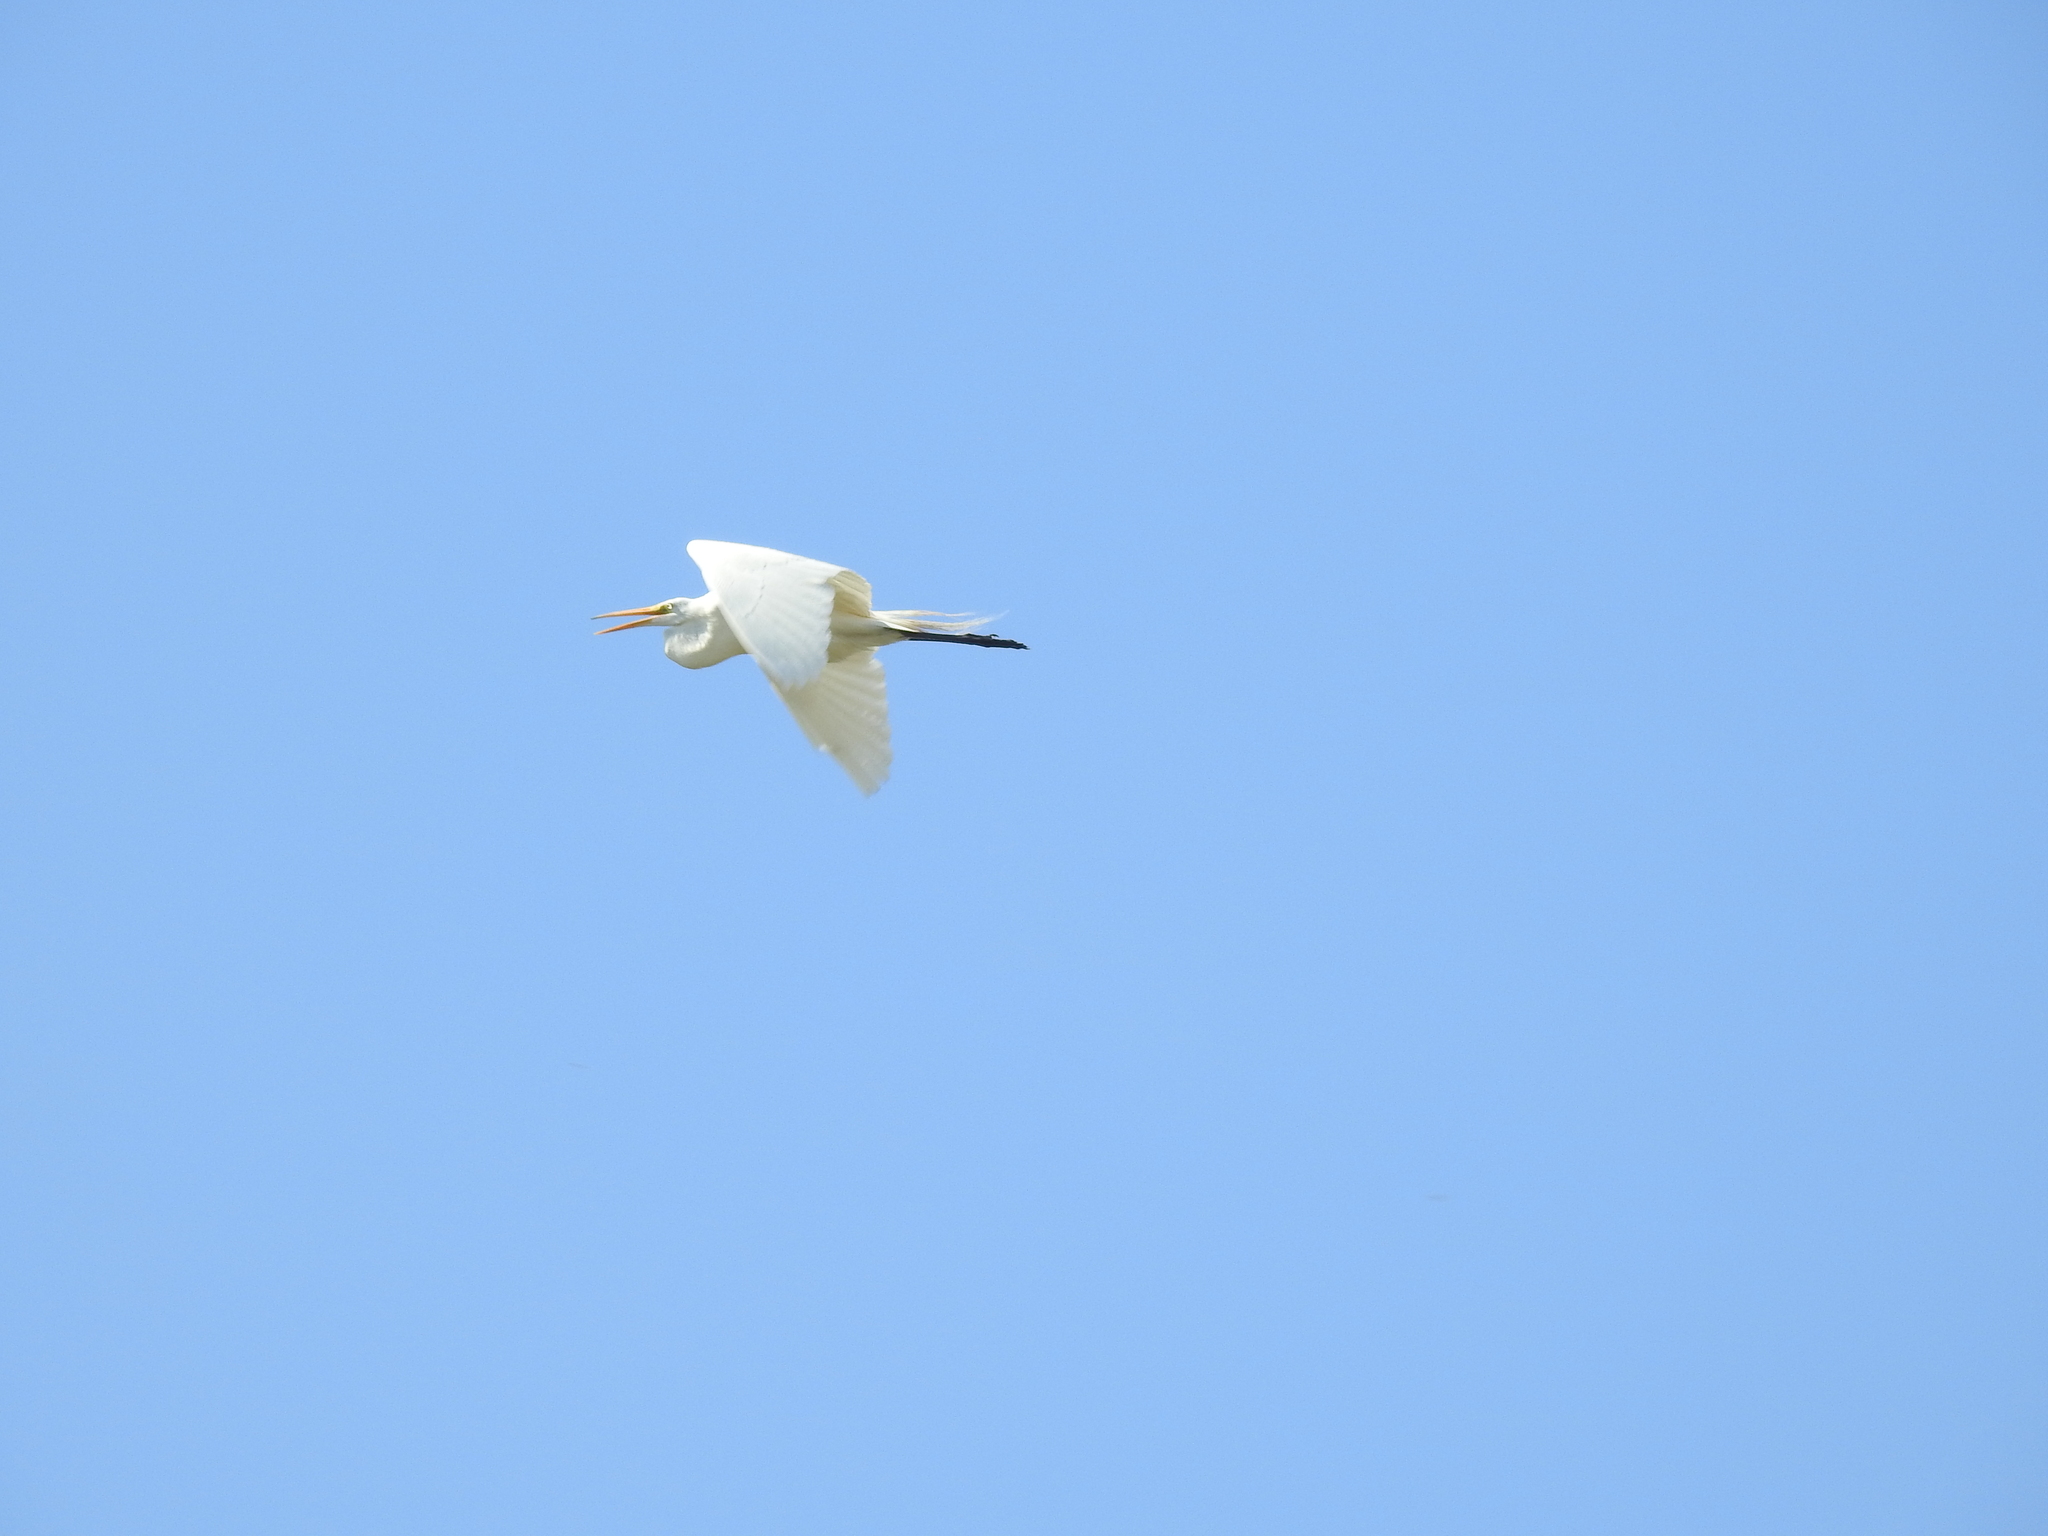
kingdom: Animalia
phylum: Chordata
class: Aves
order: Pelecaniformes
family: Ardeidae
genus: Ardea
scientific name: Ardea alba
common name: Great egret
